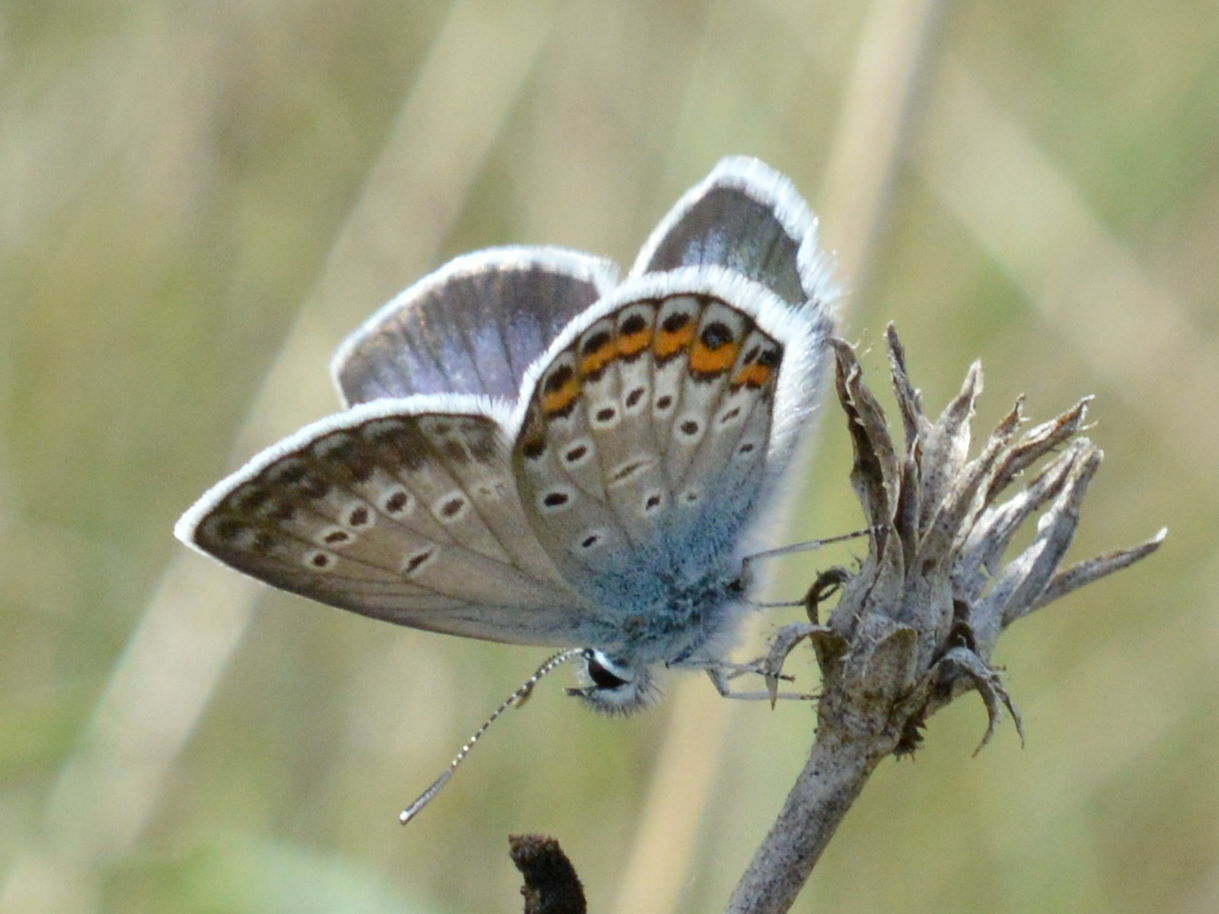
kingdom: Animalia
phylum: Arthropoda
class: Insecta
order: Lepidoptera
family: Lycaenidae
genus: Plebejus
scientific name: Plebejus argus
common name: Silver-studded blue
